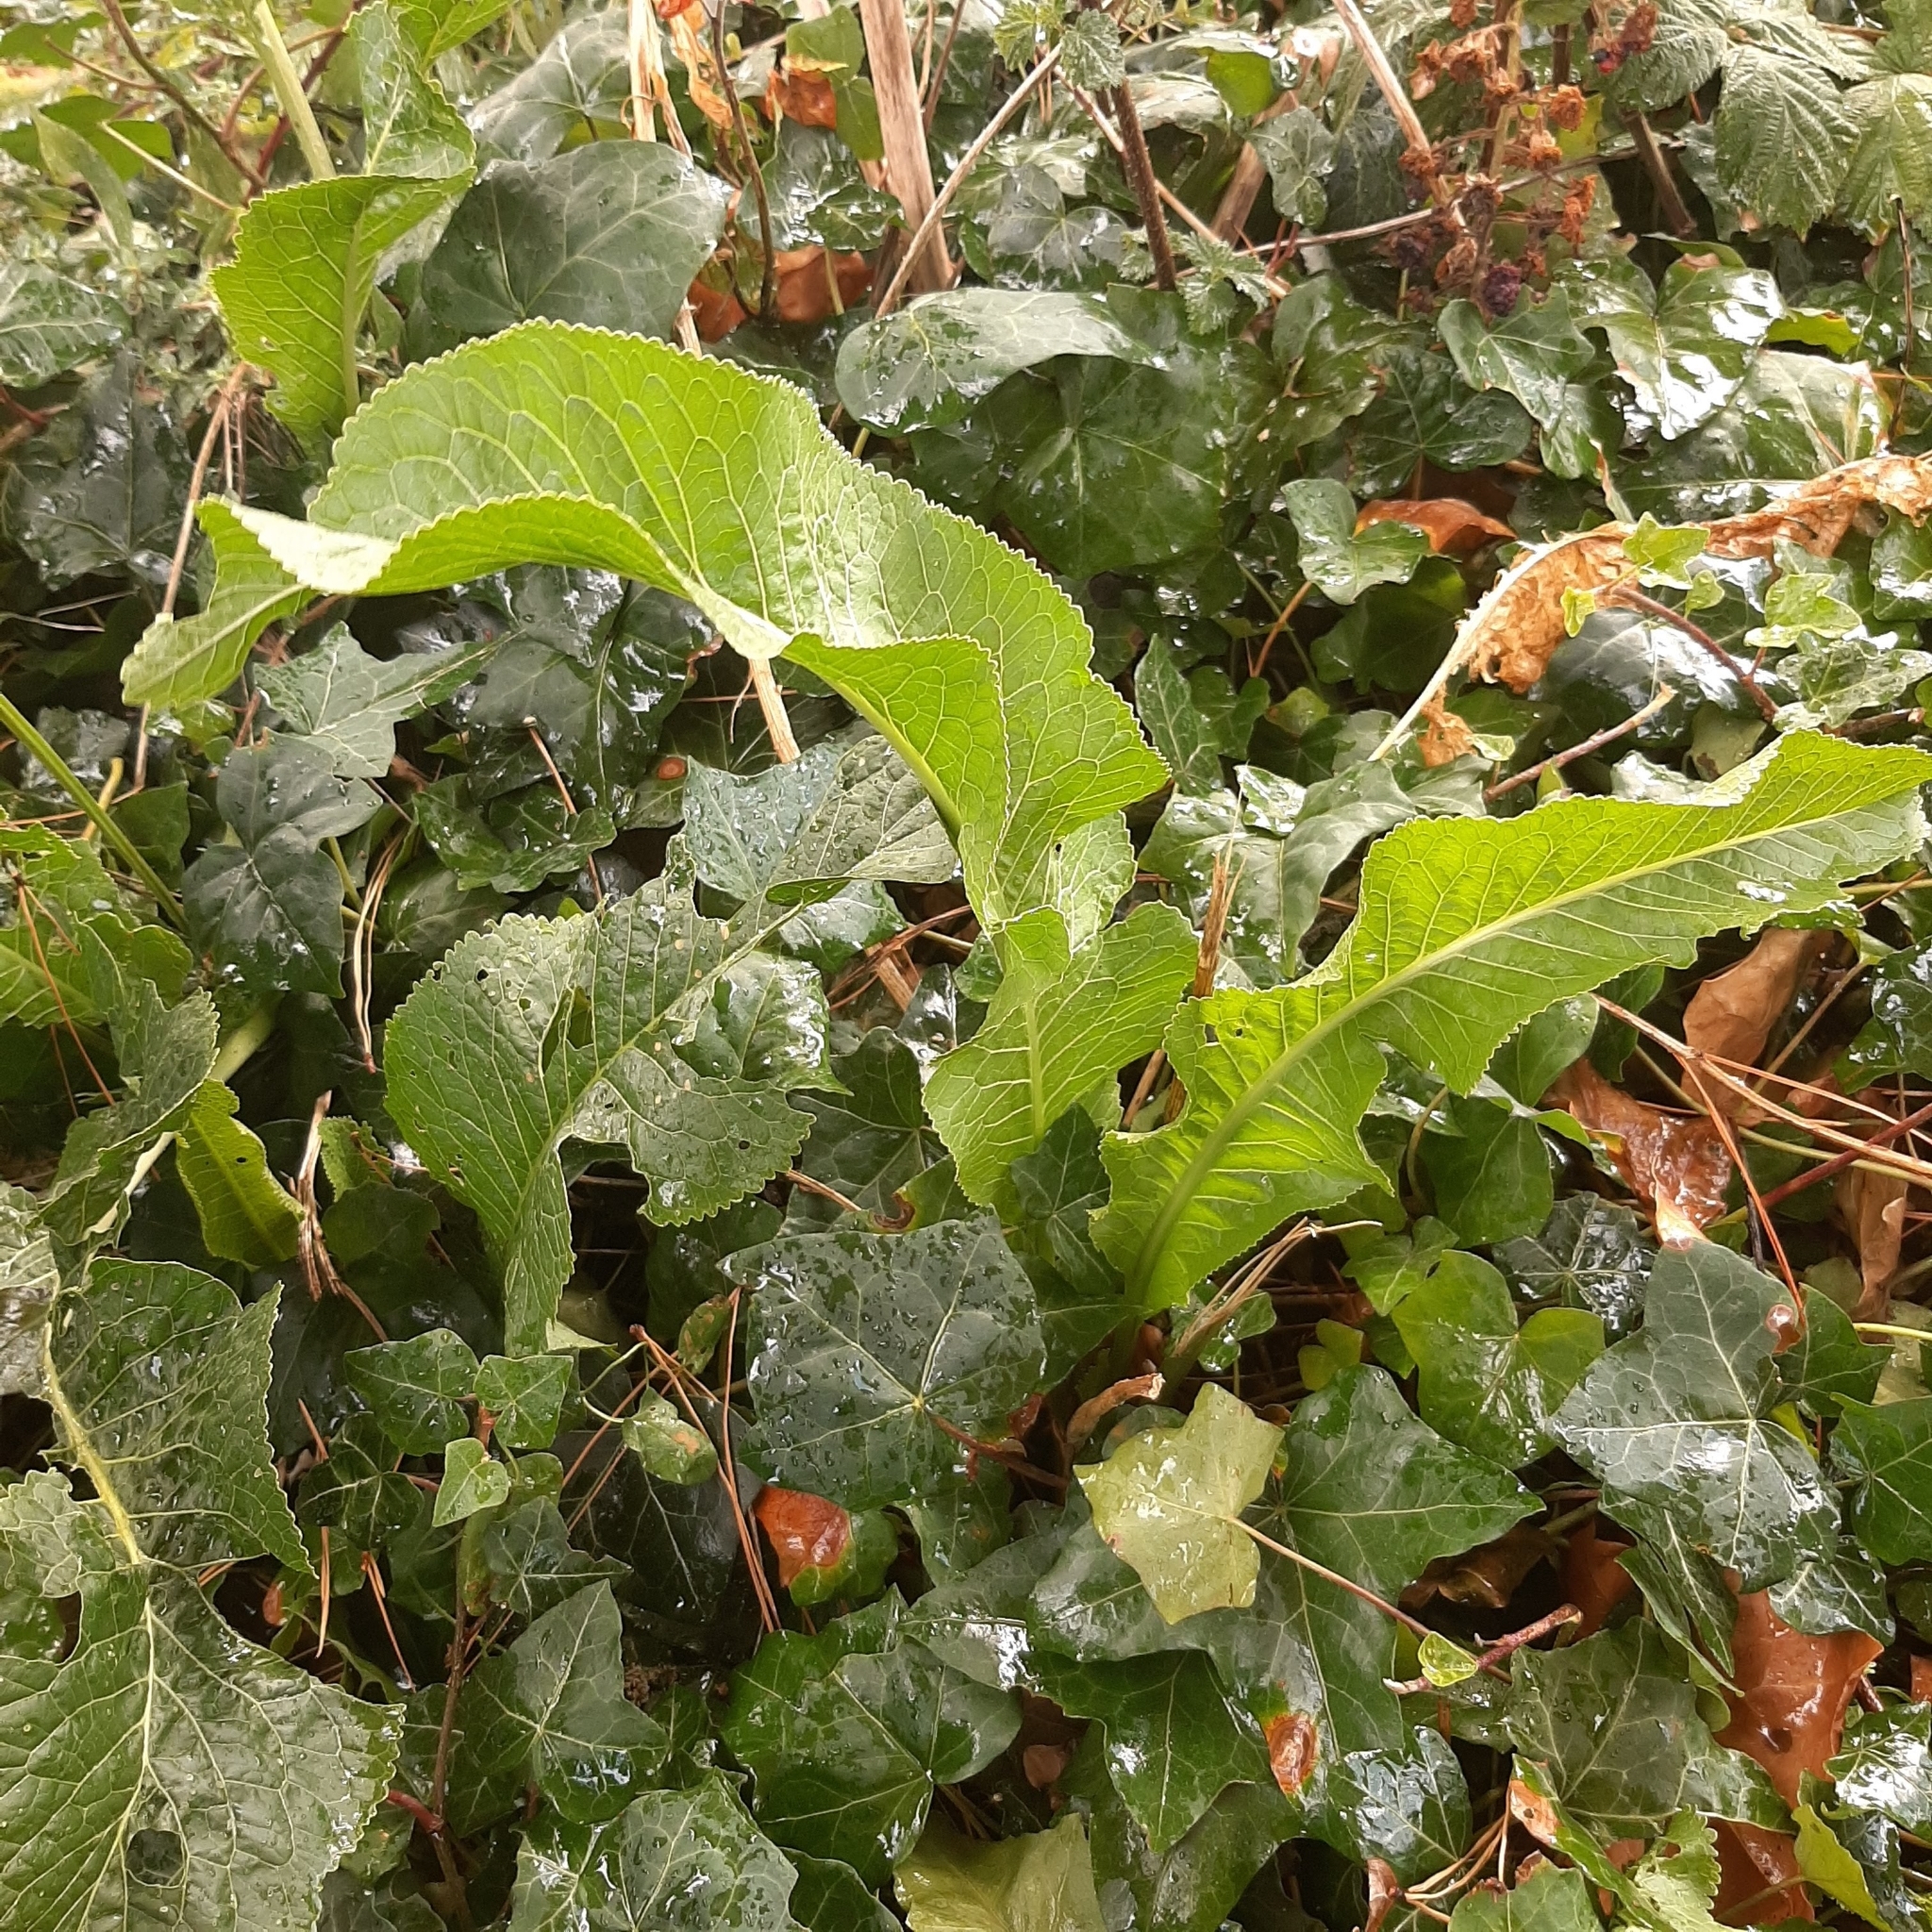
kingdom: Plantae
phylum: Tracheophyta
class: Magnoliopsida
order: Brassicales
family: Brassicaceae
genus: Armoracia
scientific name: Armoracia rusticana
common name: Horseradish
